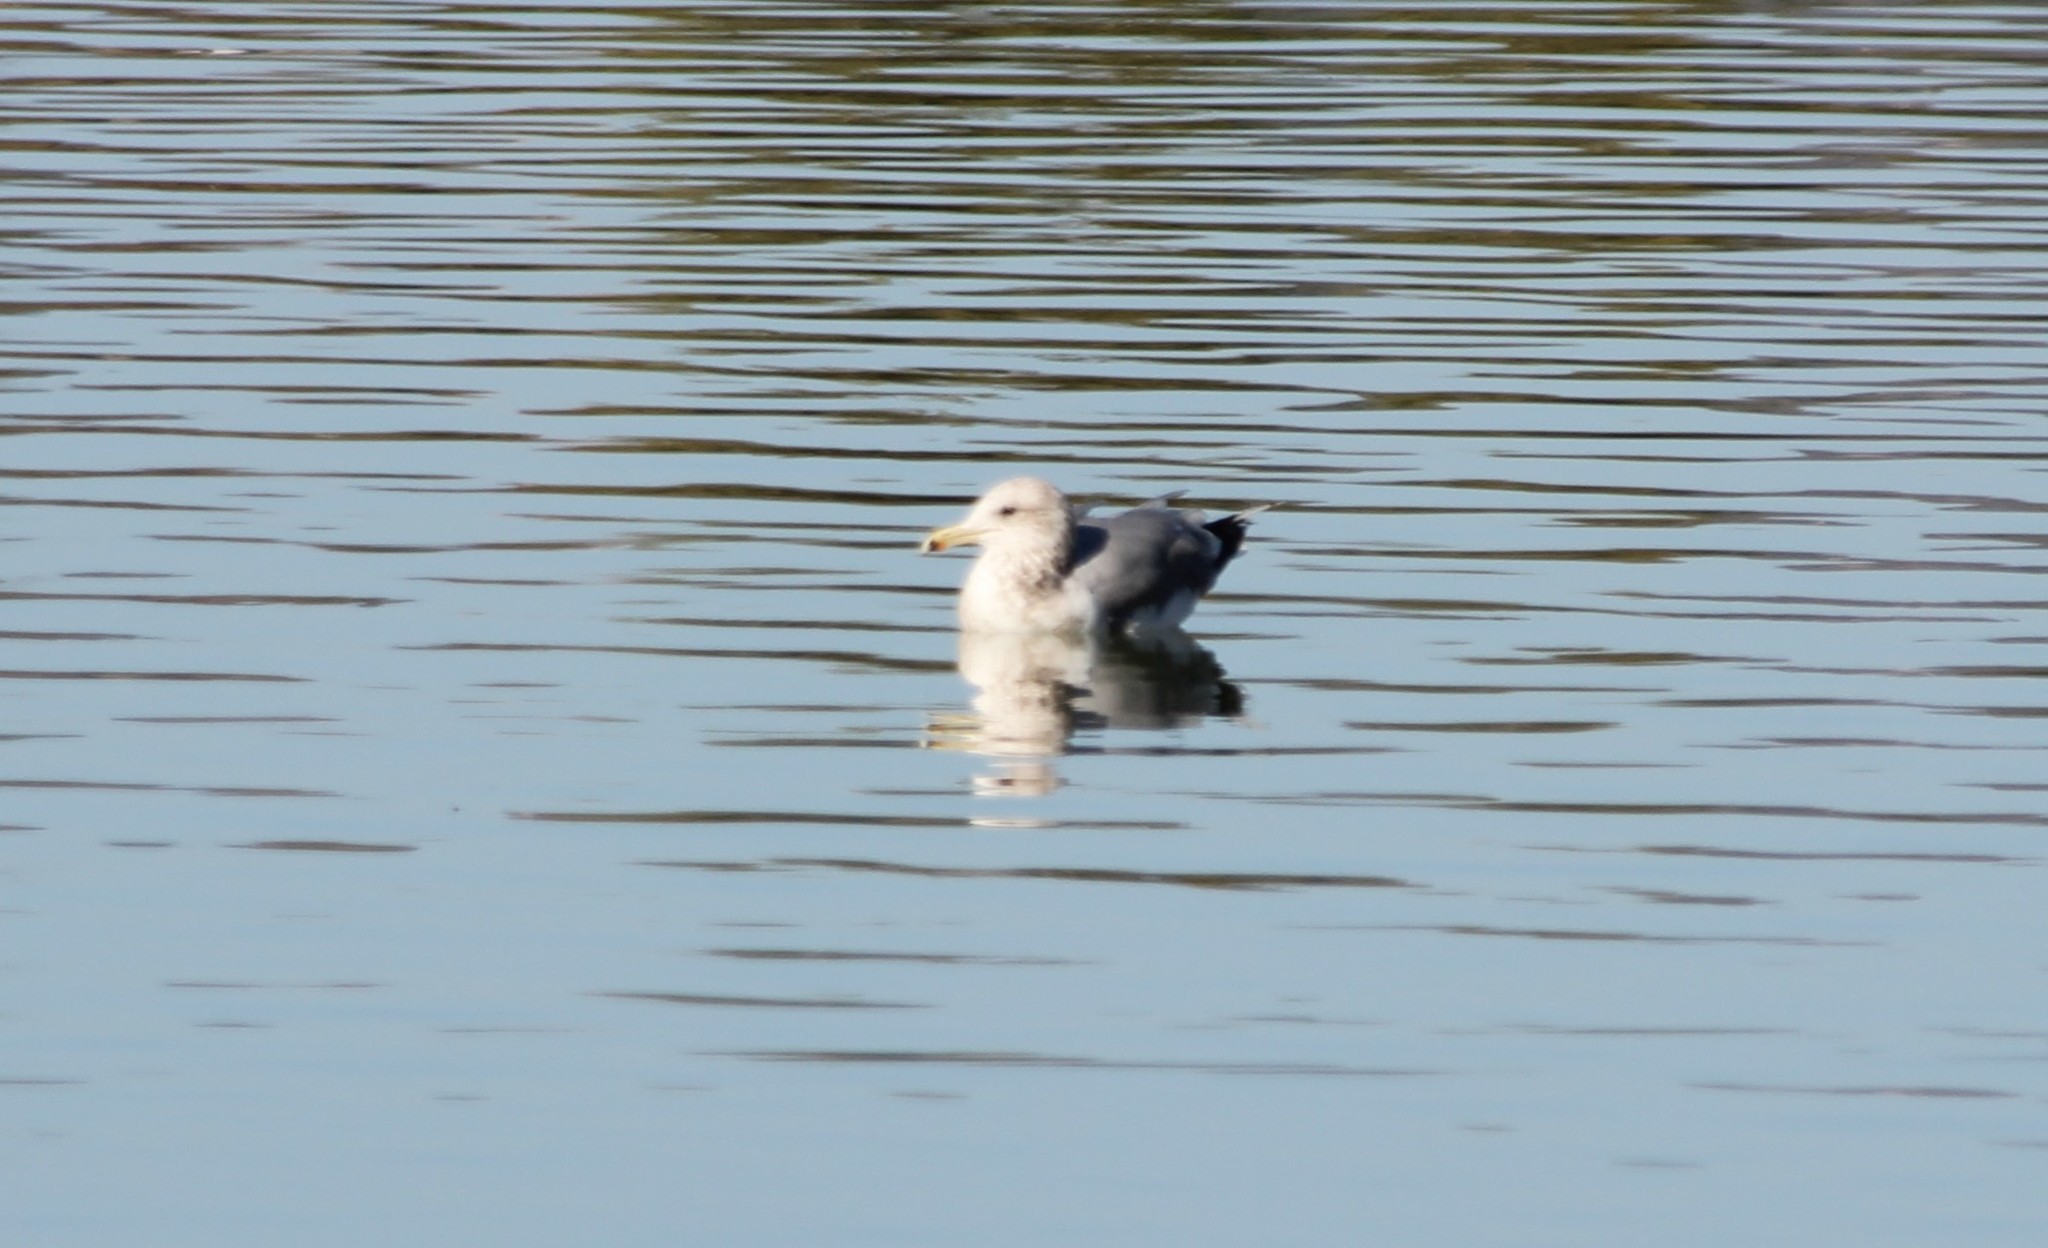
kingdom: Animalia
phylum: Chordata
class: Aves
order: Charadriiformes
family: Laridae
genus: Larus
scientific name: Larus californicus
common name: California gull
